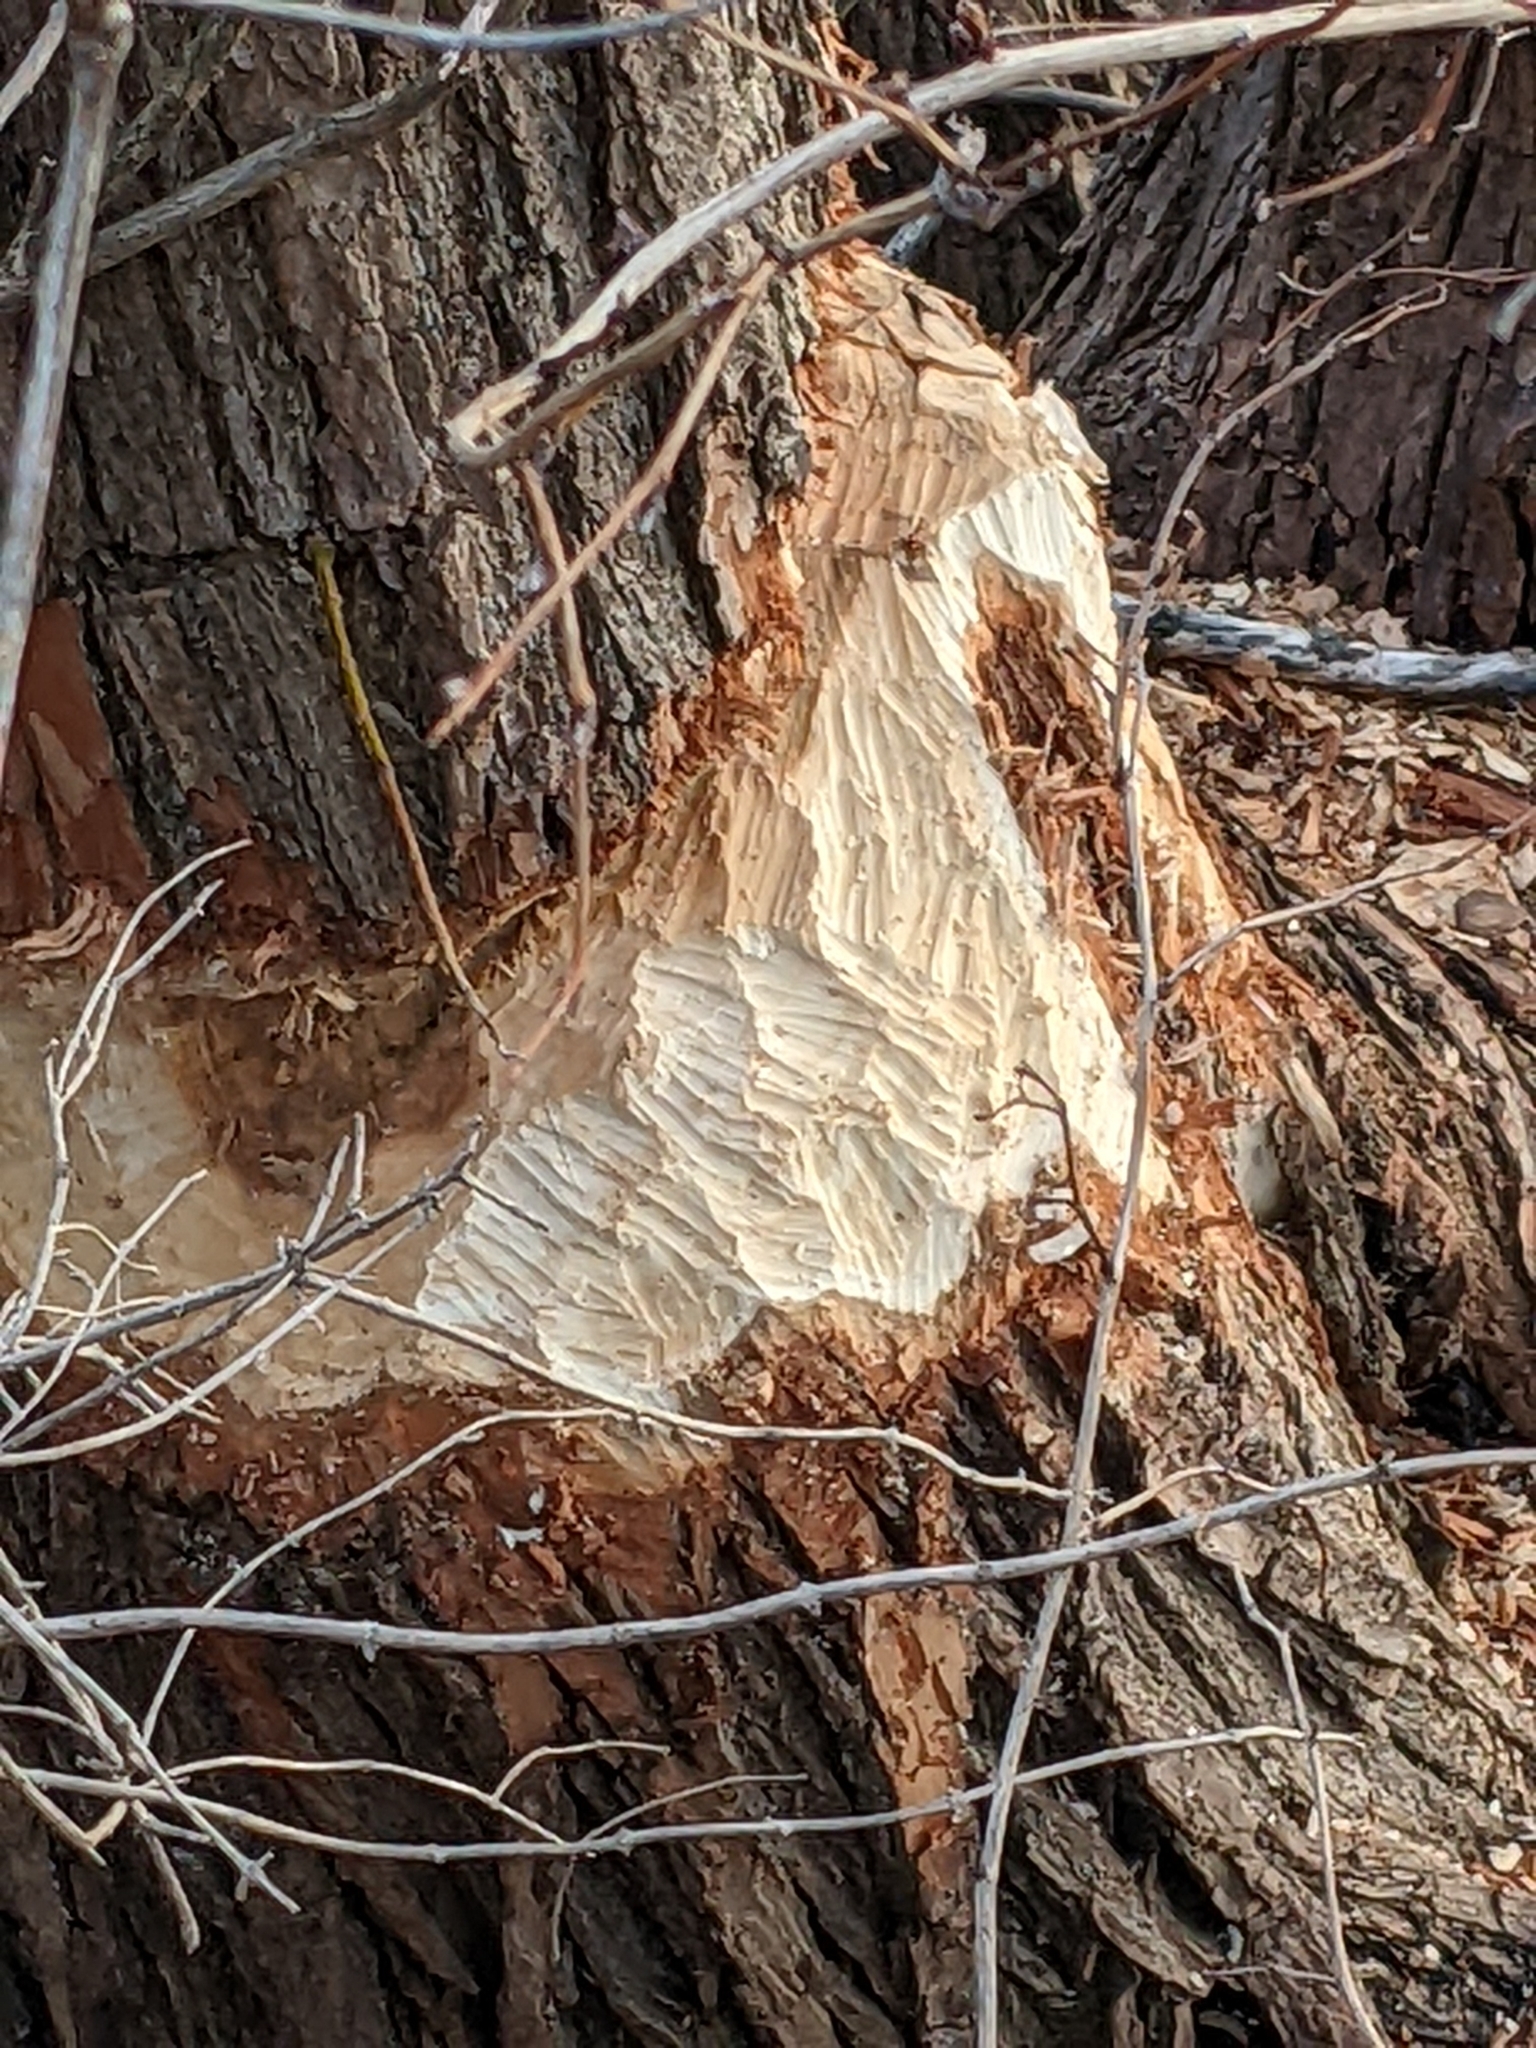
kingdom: Animalia
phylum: Chordata
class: Mammalia
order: Rodentia
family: Castoridae
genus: Castor
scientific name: Castor canadensis
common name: American beaver
